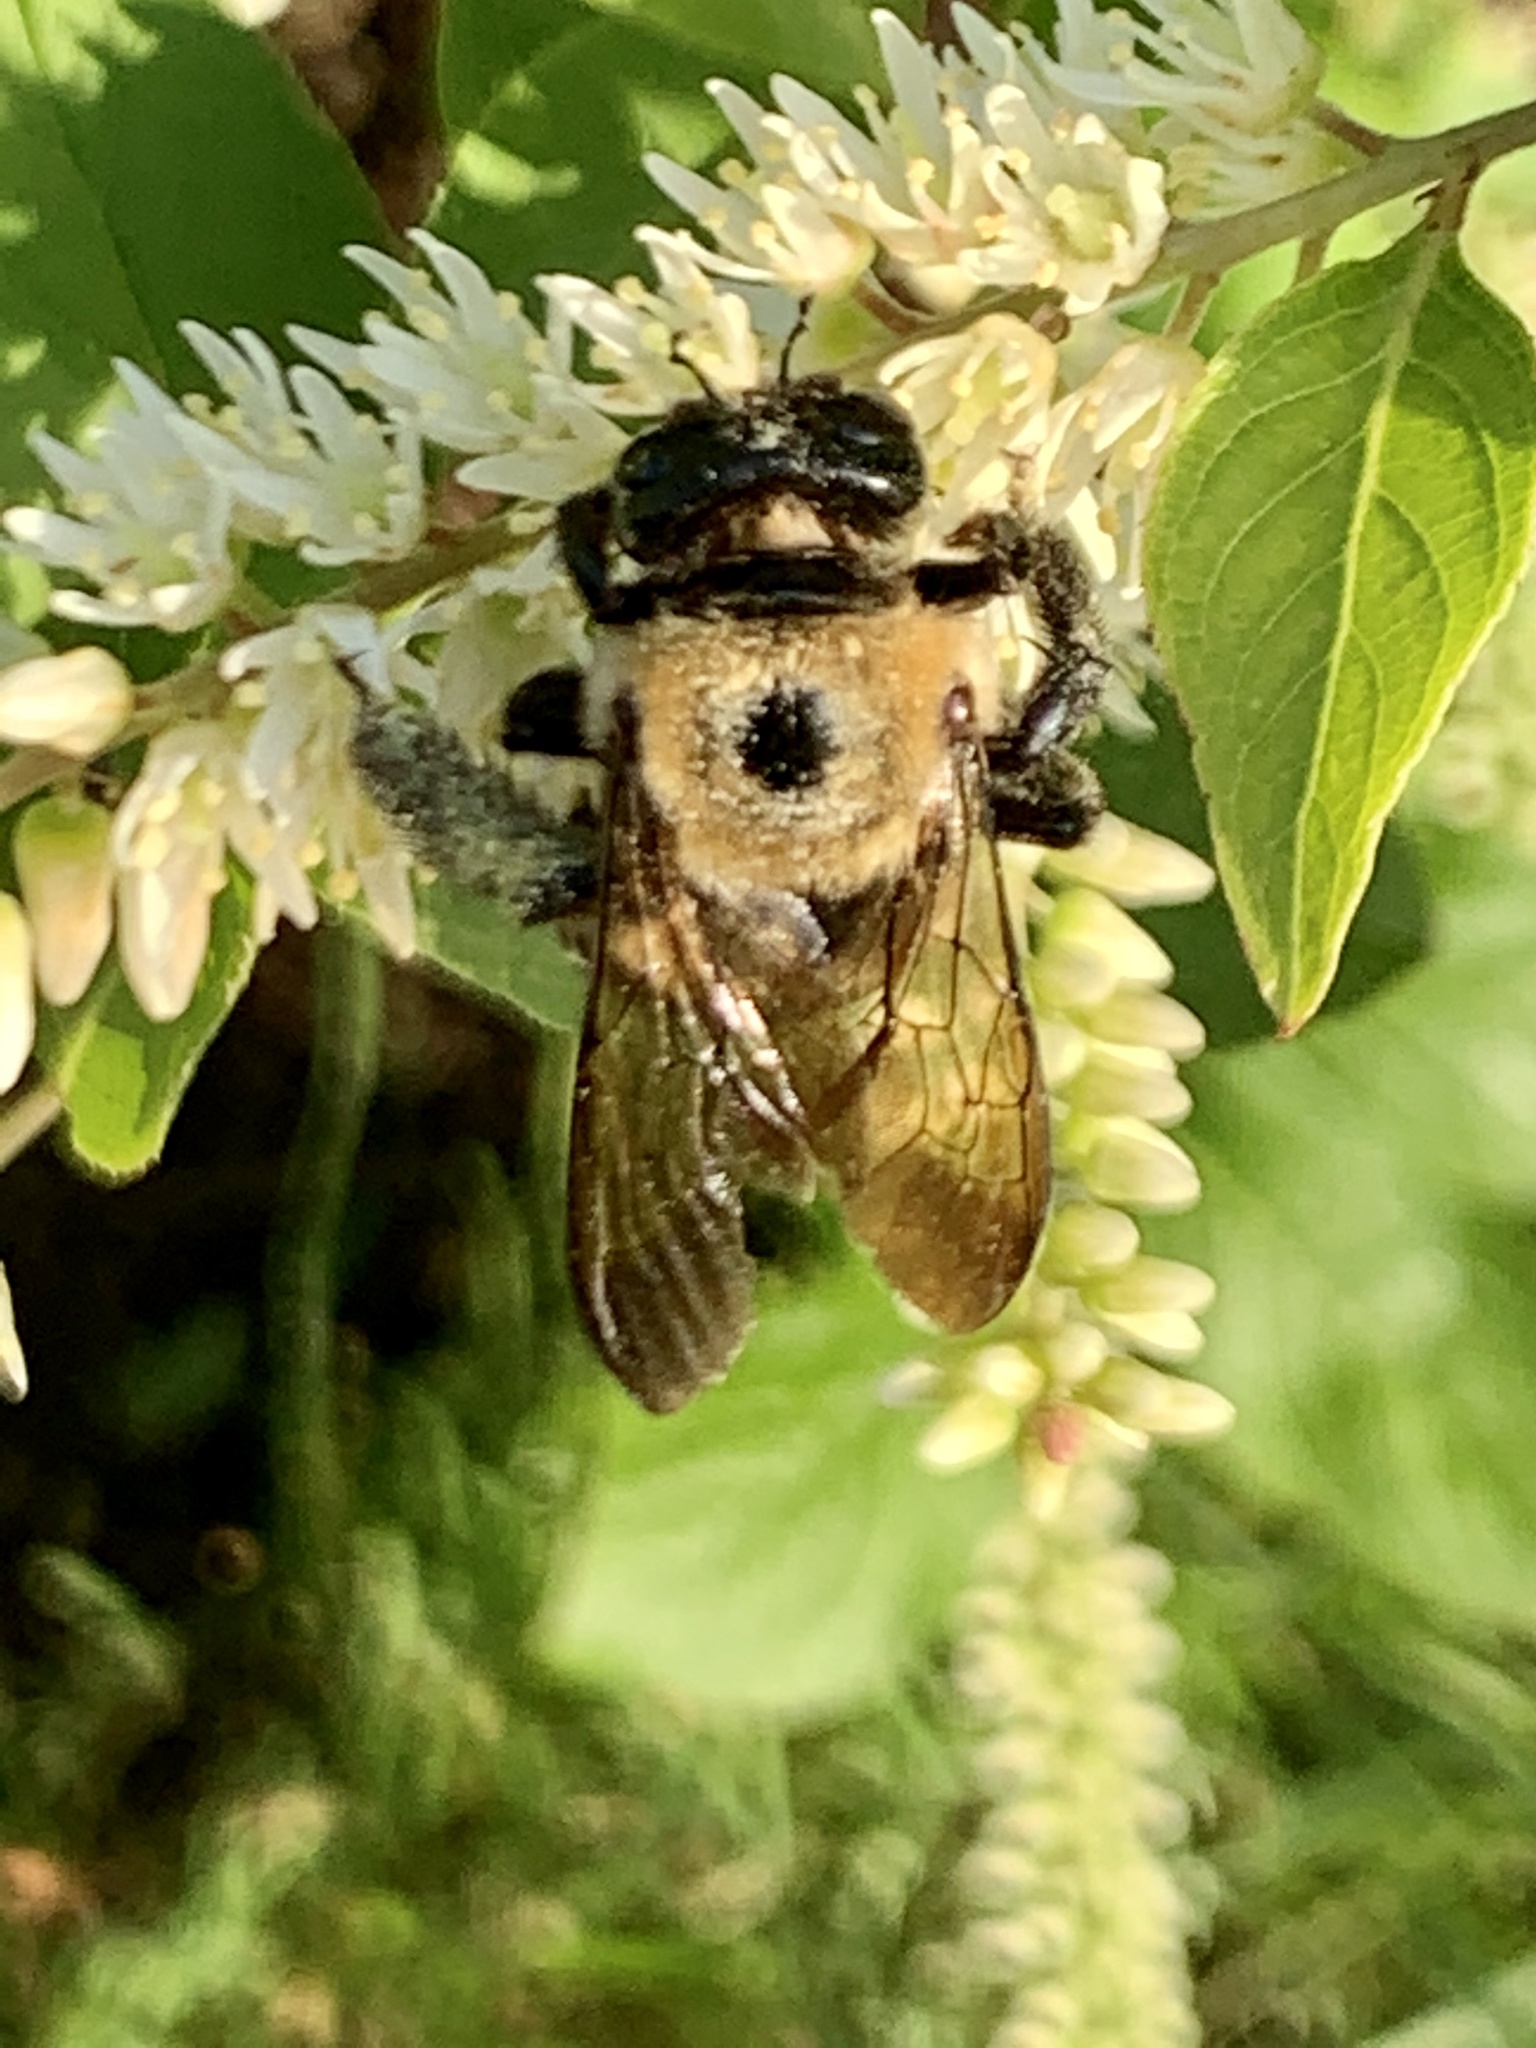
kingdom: Animalia
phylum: Arthropoda
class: Insecta
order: Hymenoptera
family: Apidae
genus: Xylocopa
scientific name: Xylocopa virginica
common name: Carpenter bee
